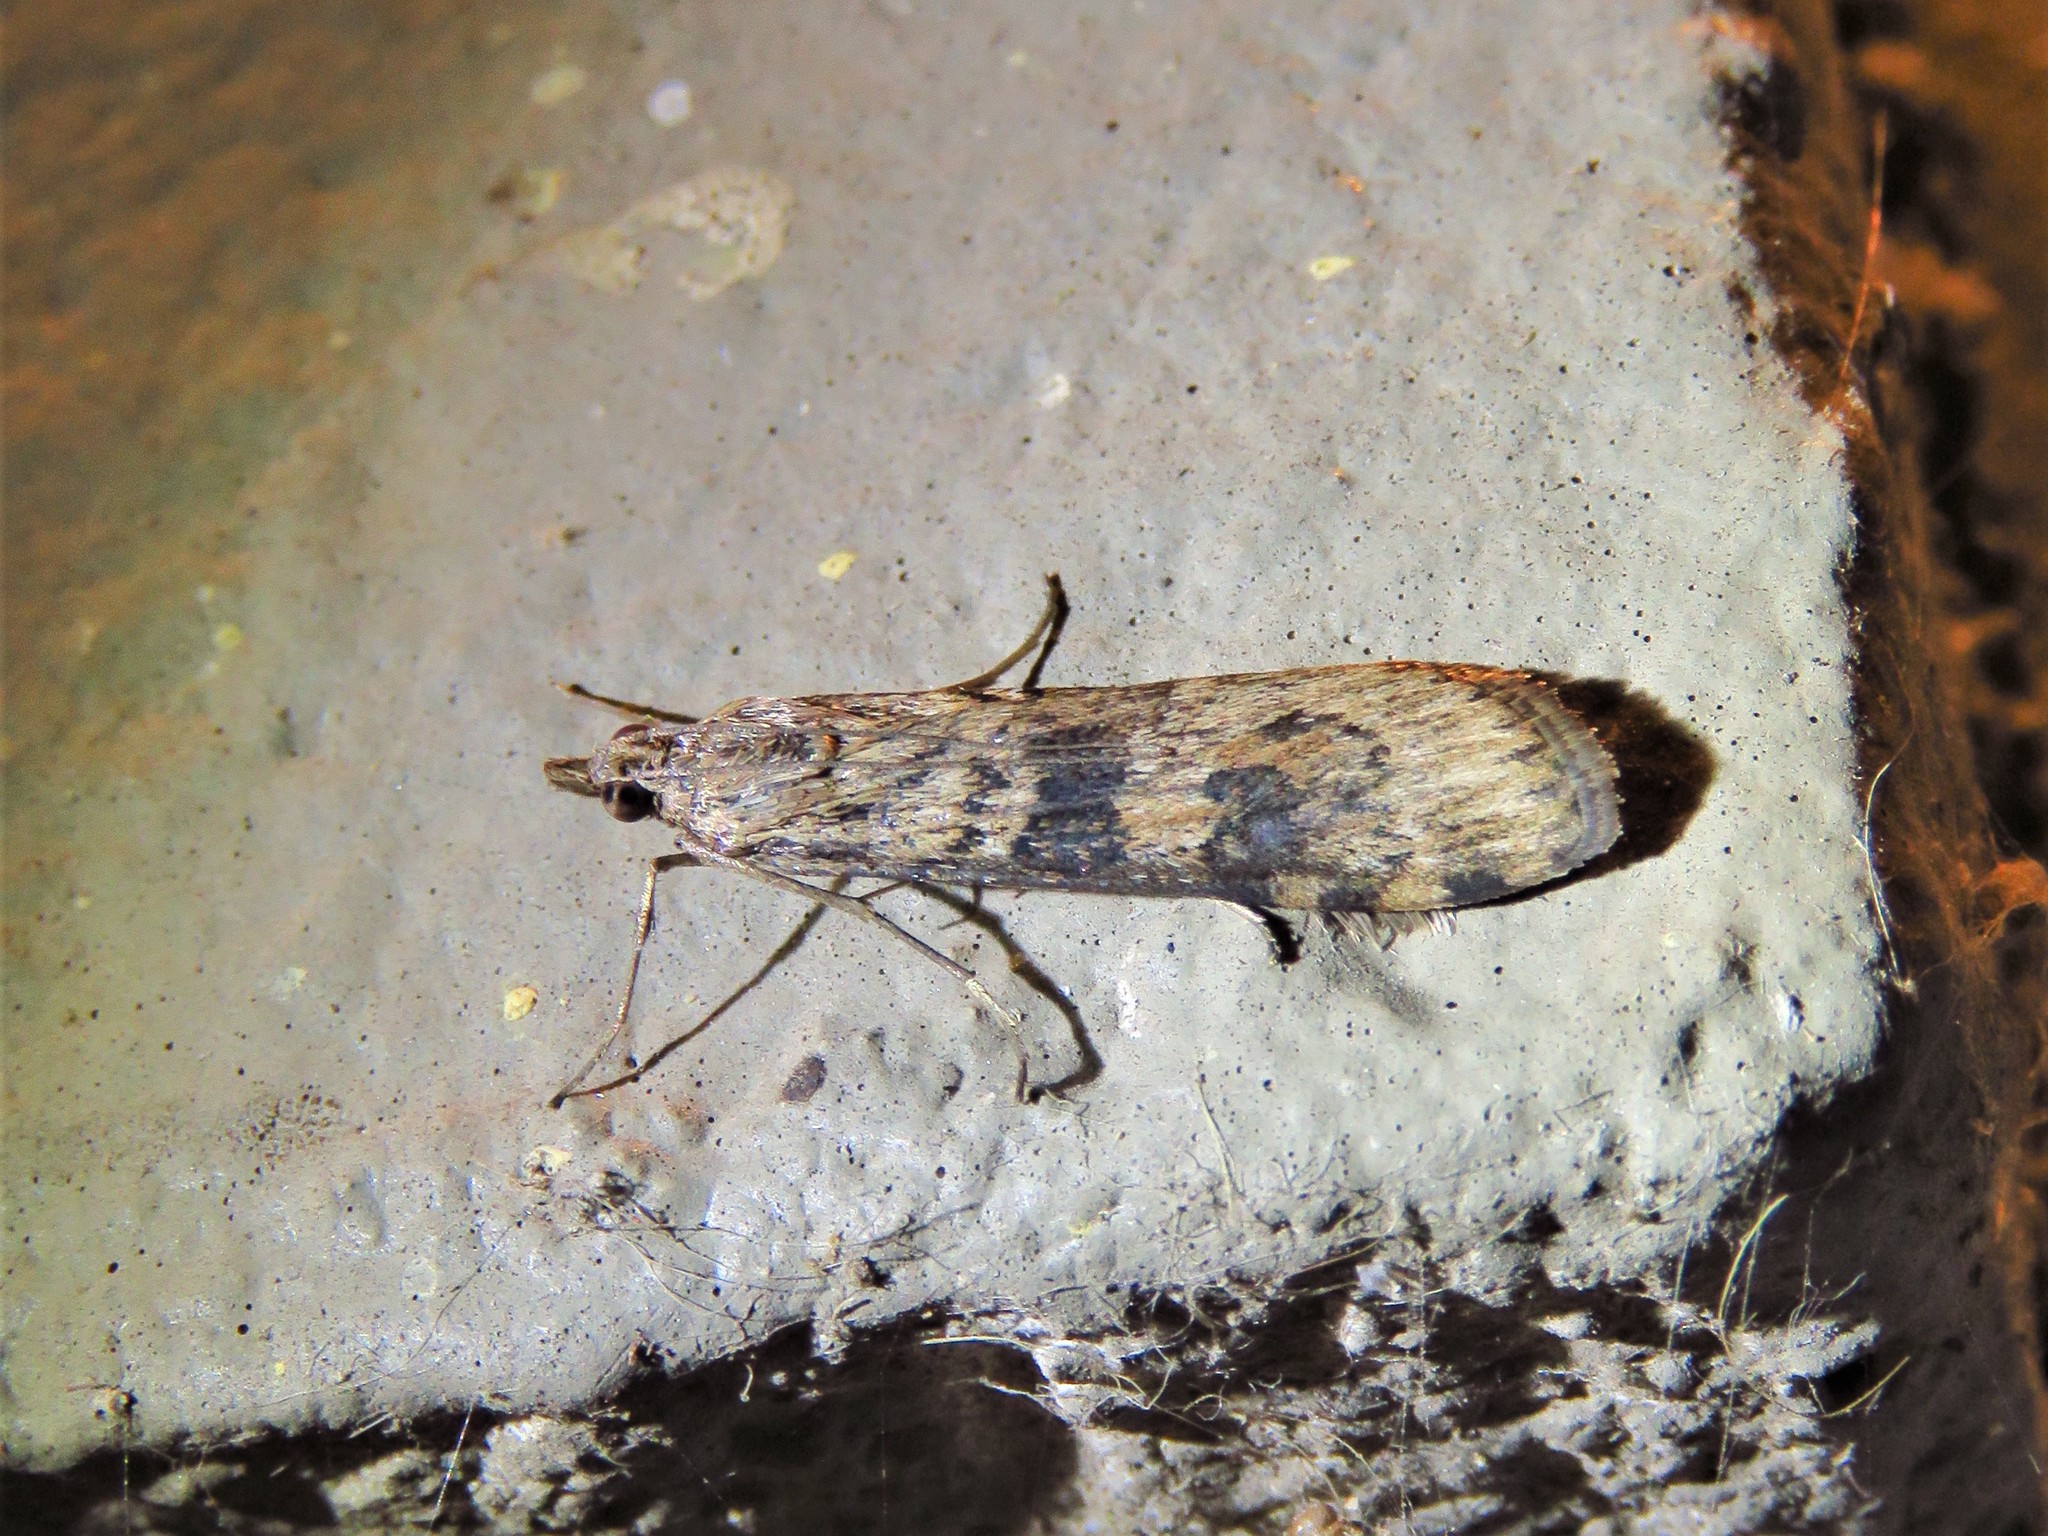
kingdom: Animalia
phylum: Arthropoda
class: Insecta
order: Lepidoptera
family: Crambidae
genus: Nomophila
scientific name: Nomophila nearctica
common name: American rush veneer
